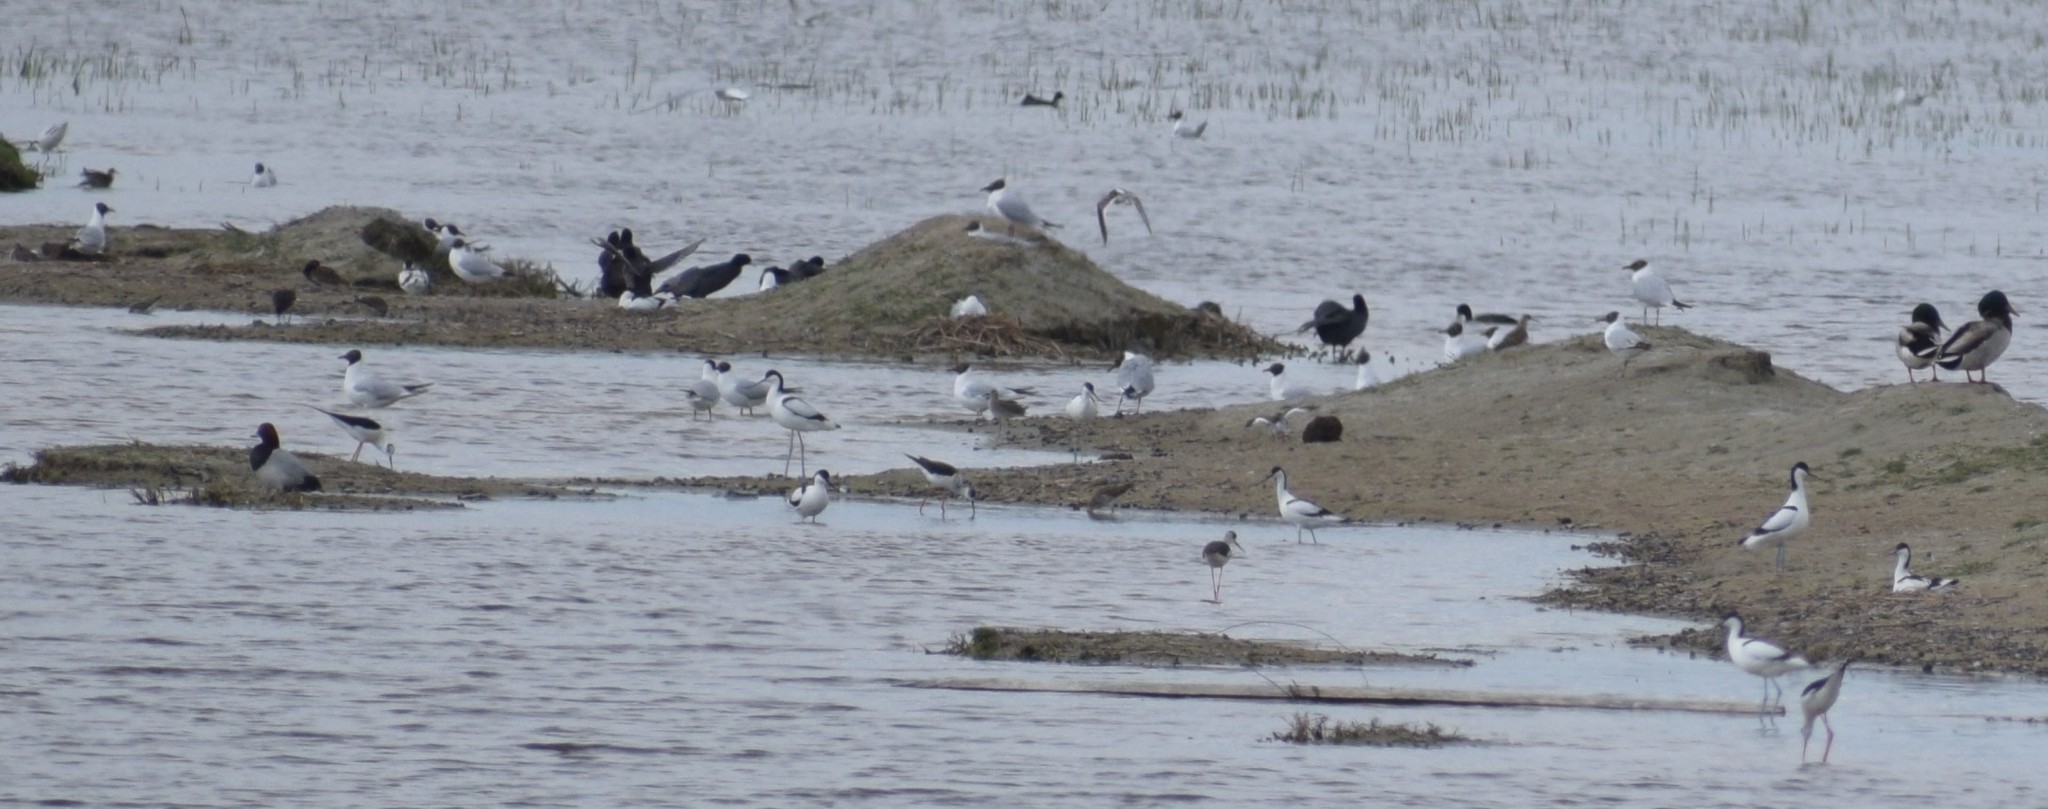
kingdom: Animalia
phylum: Chordata
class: Aves
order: Anseriformes
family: Anatidae
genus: Aythya
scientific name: Aythya ferina
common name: Common pochard
